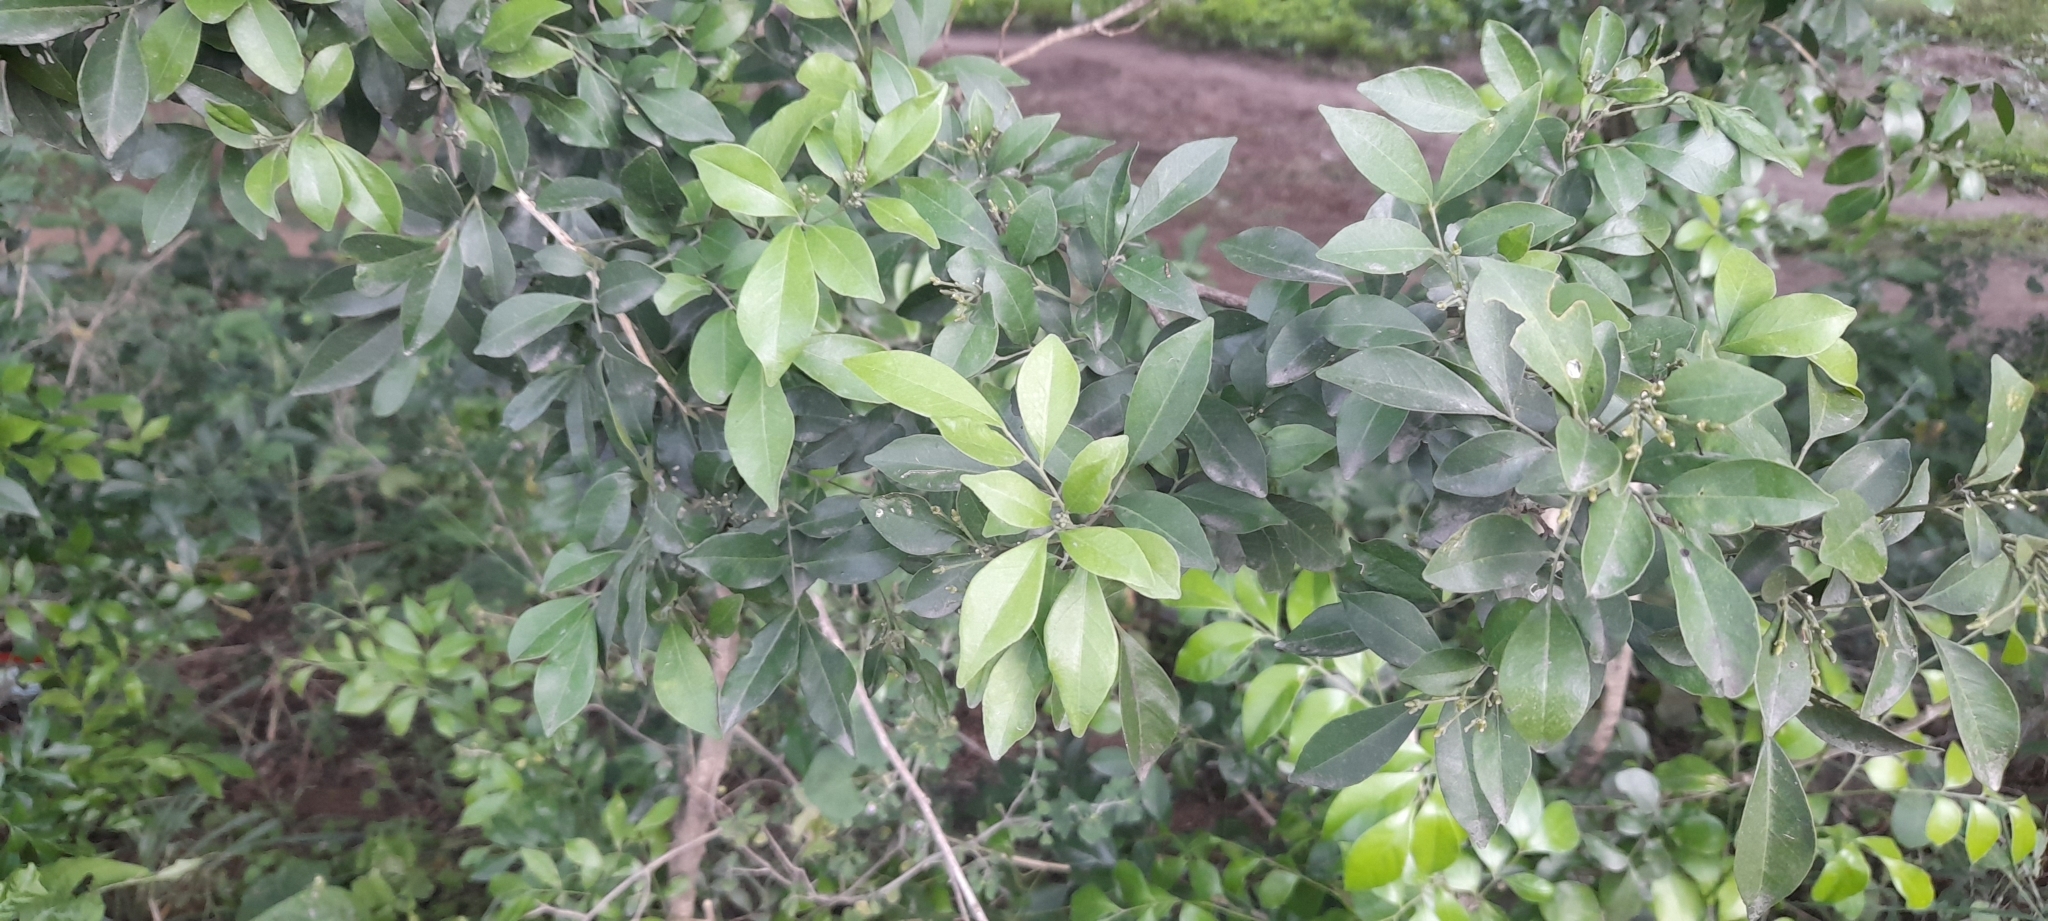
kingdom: Plantae
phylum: Tracheophyta
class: Magnoliopsida
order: Sapindales
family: Rutaceae
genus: Murraya
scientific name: Murraya paniculata
